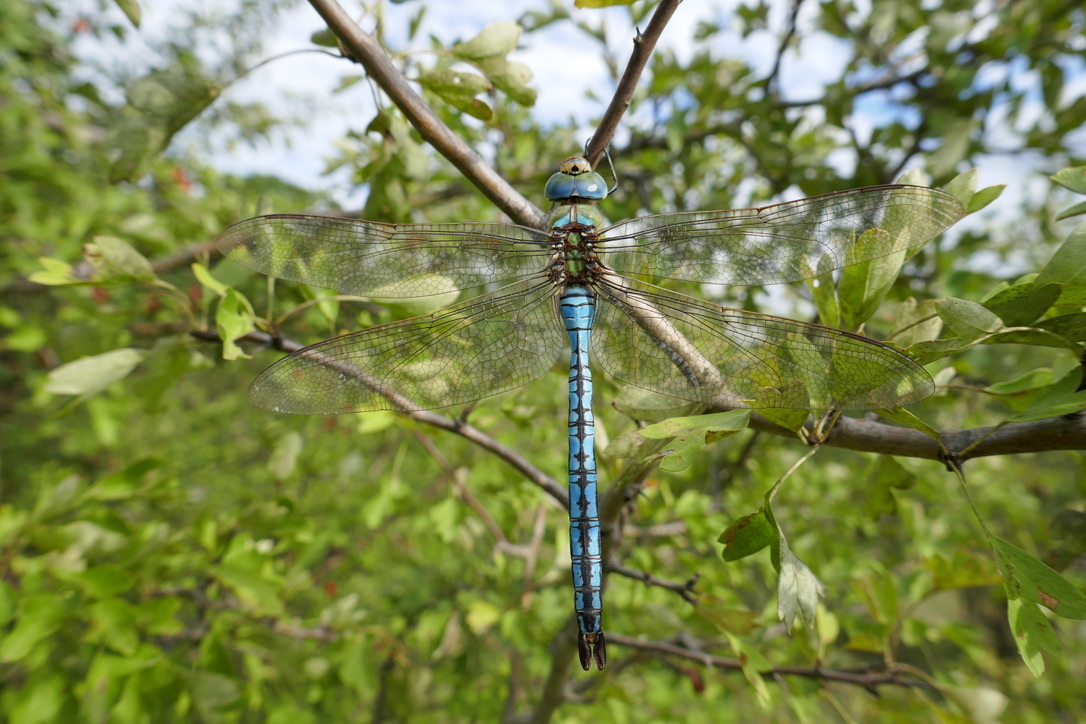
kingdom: Animalia
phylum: Arthropoda
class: Insecta
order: Odonata
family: Aeshnidae
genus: Anax
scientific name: Anax imperator
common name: Emperor dragonfly
